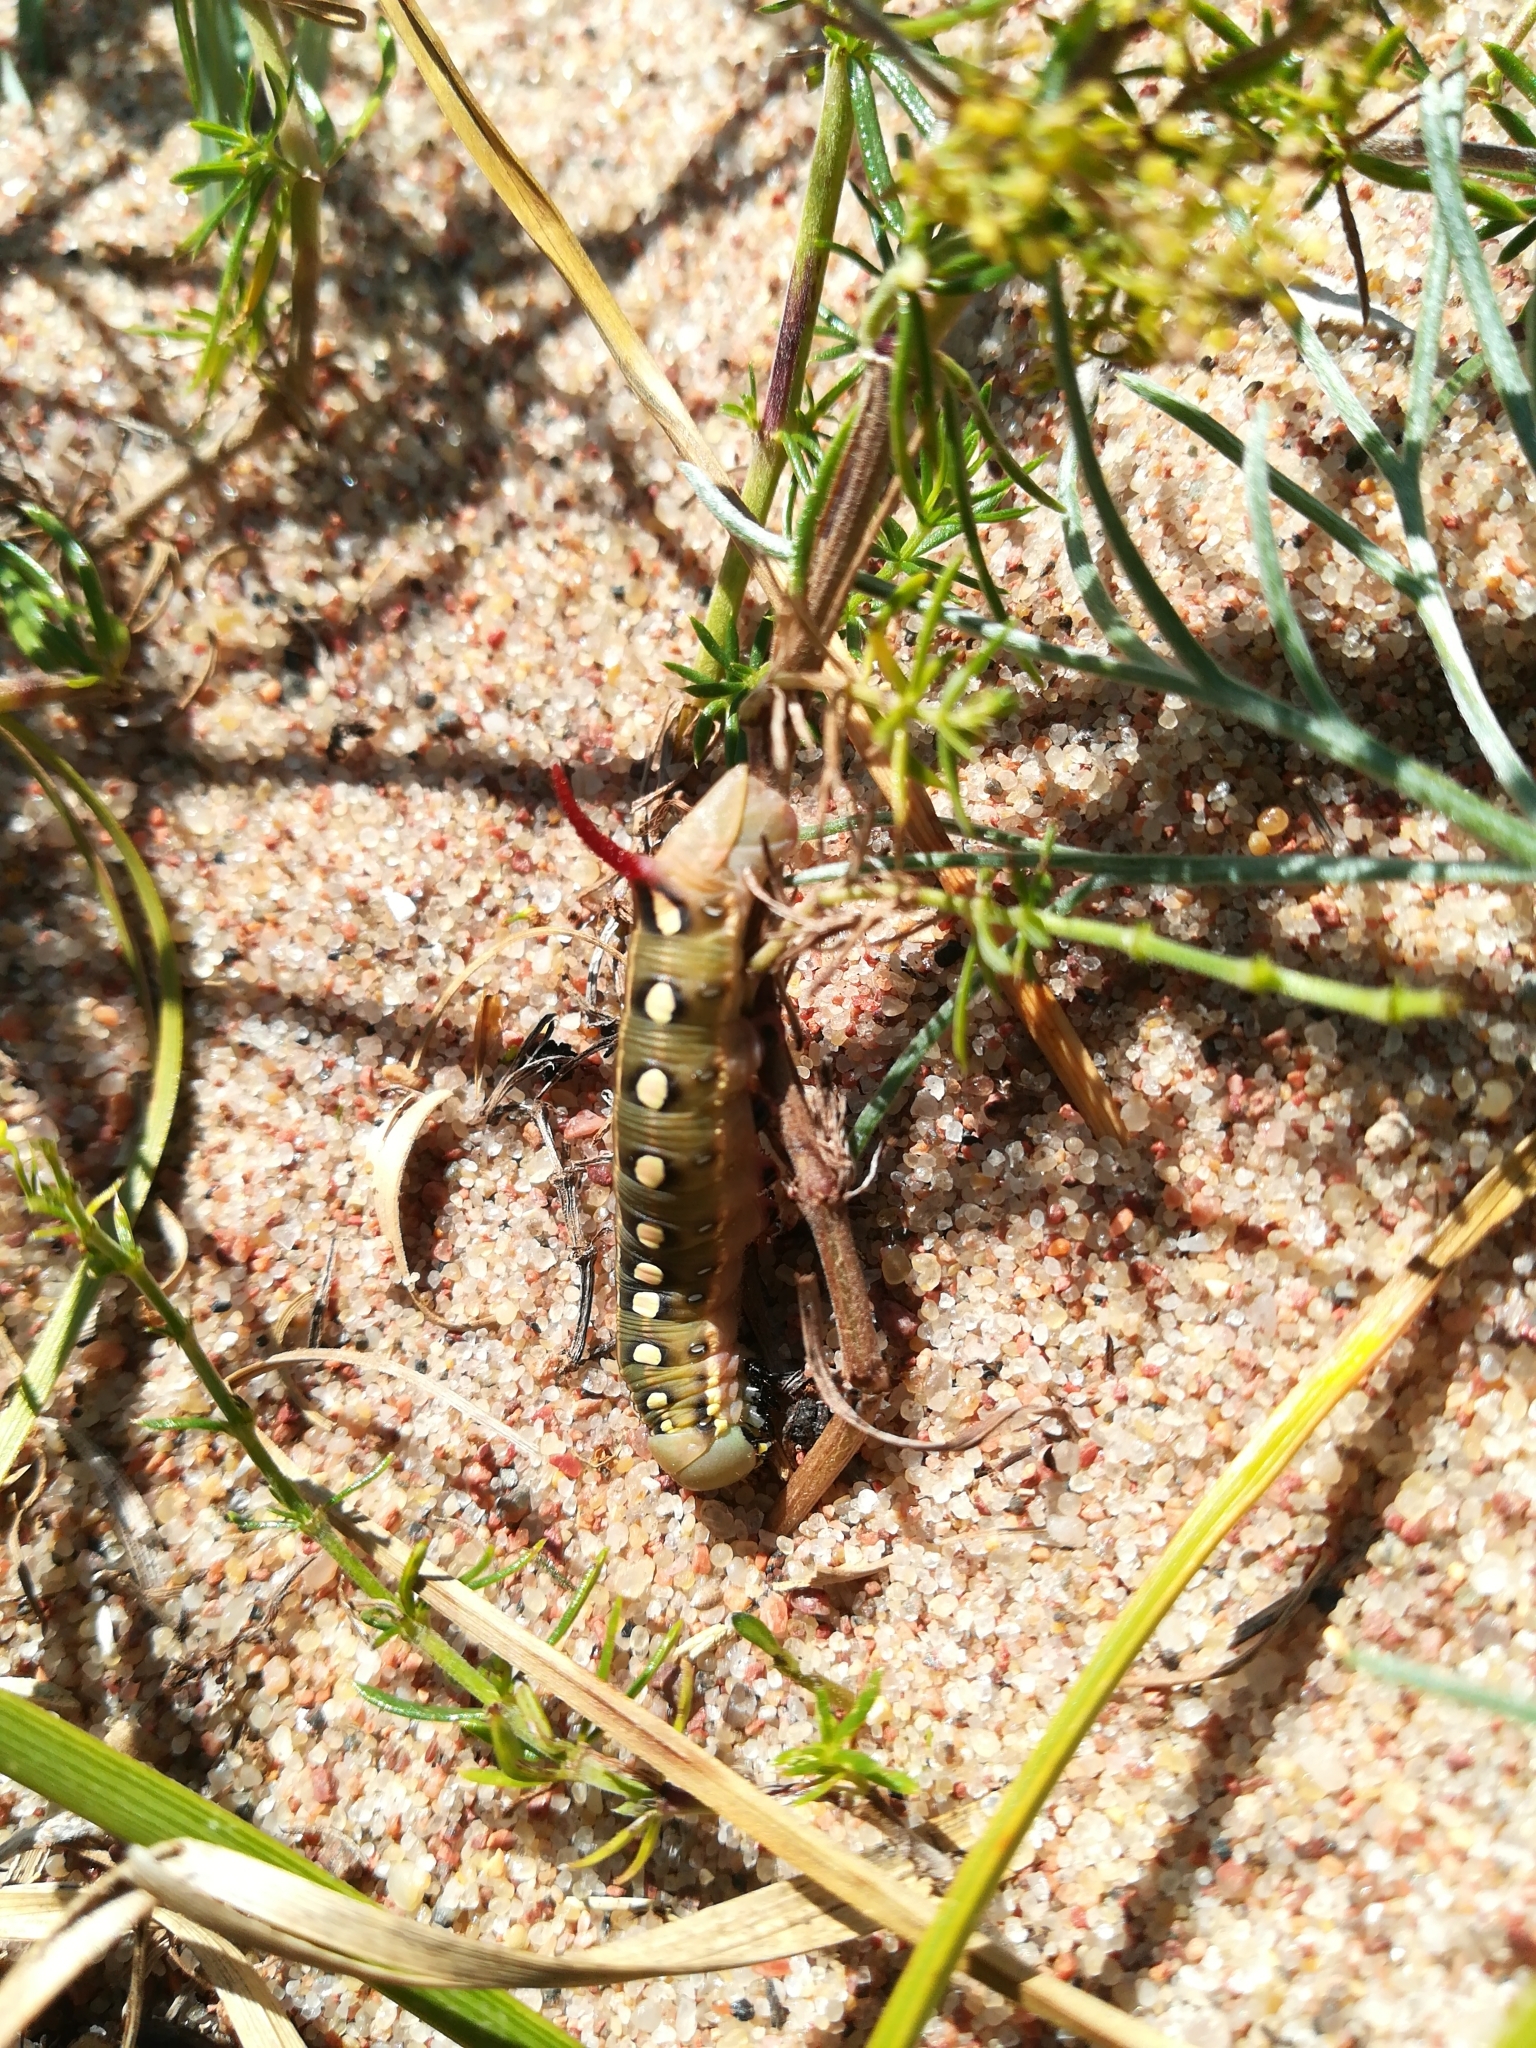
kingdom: Animalia
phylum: Arthropoda
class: Insecta
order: Lepidoptera
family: Sphingidae
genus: Hyles
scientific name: Hyles gallii
